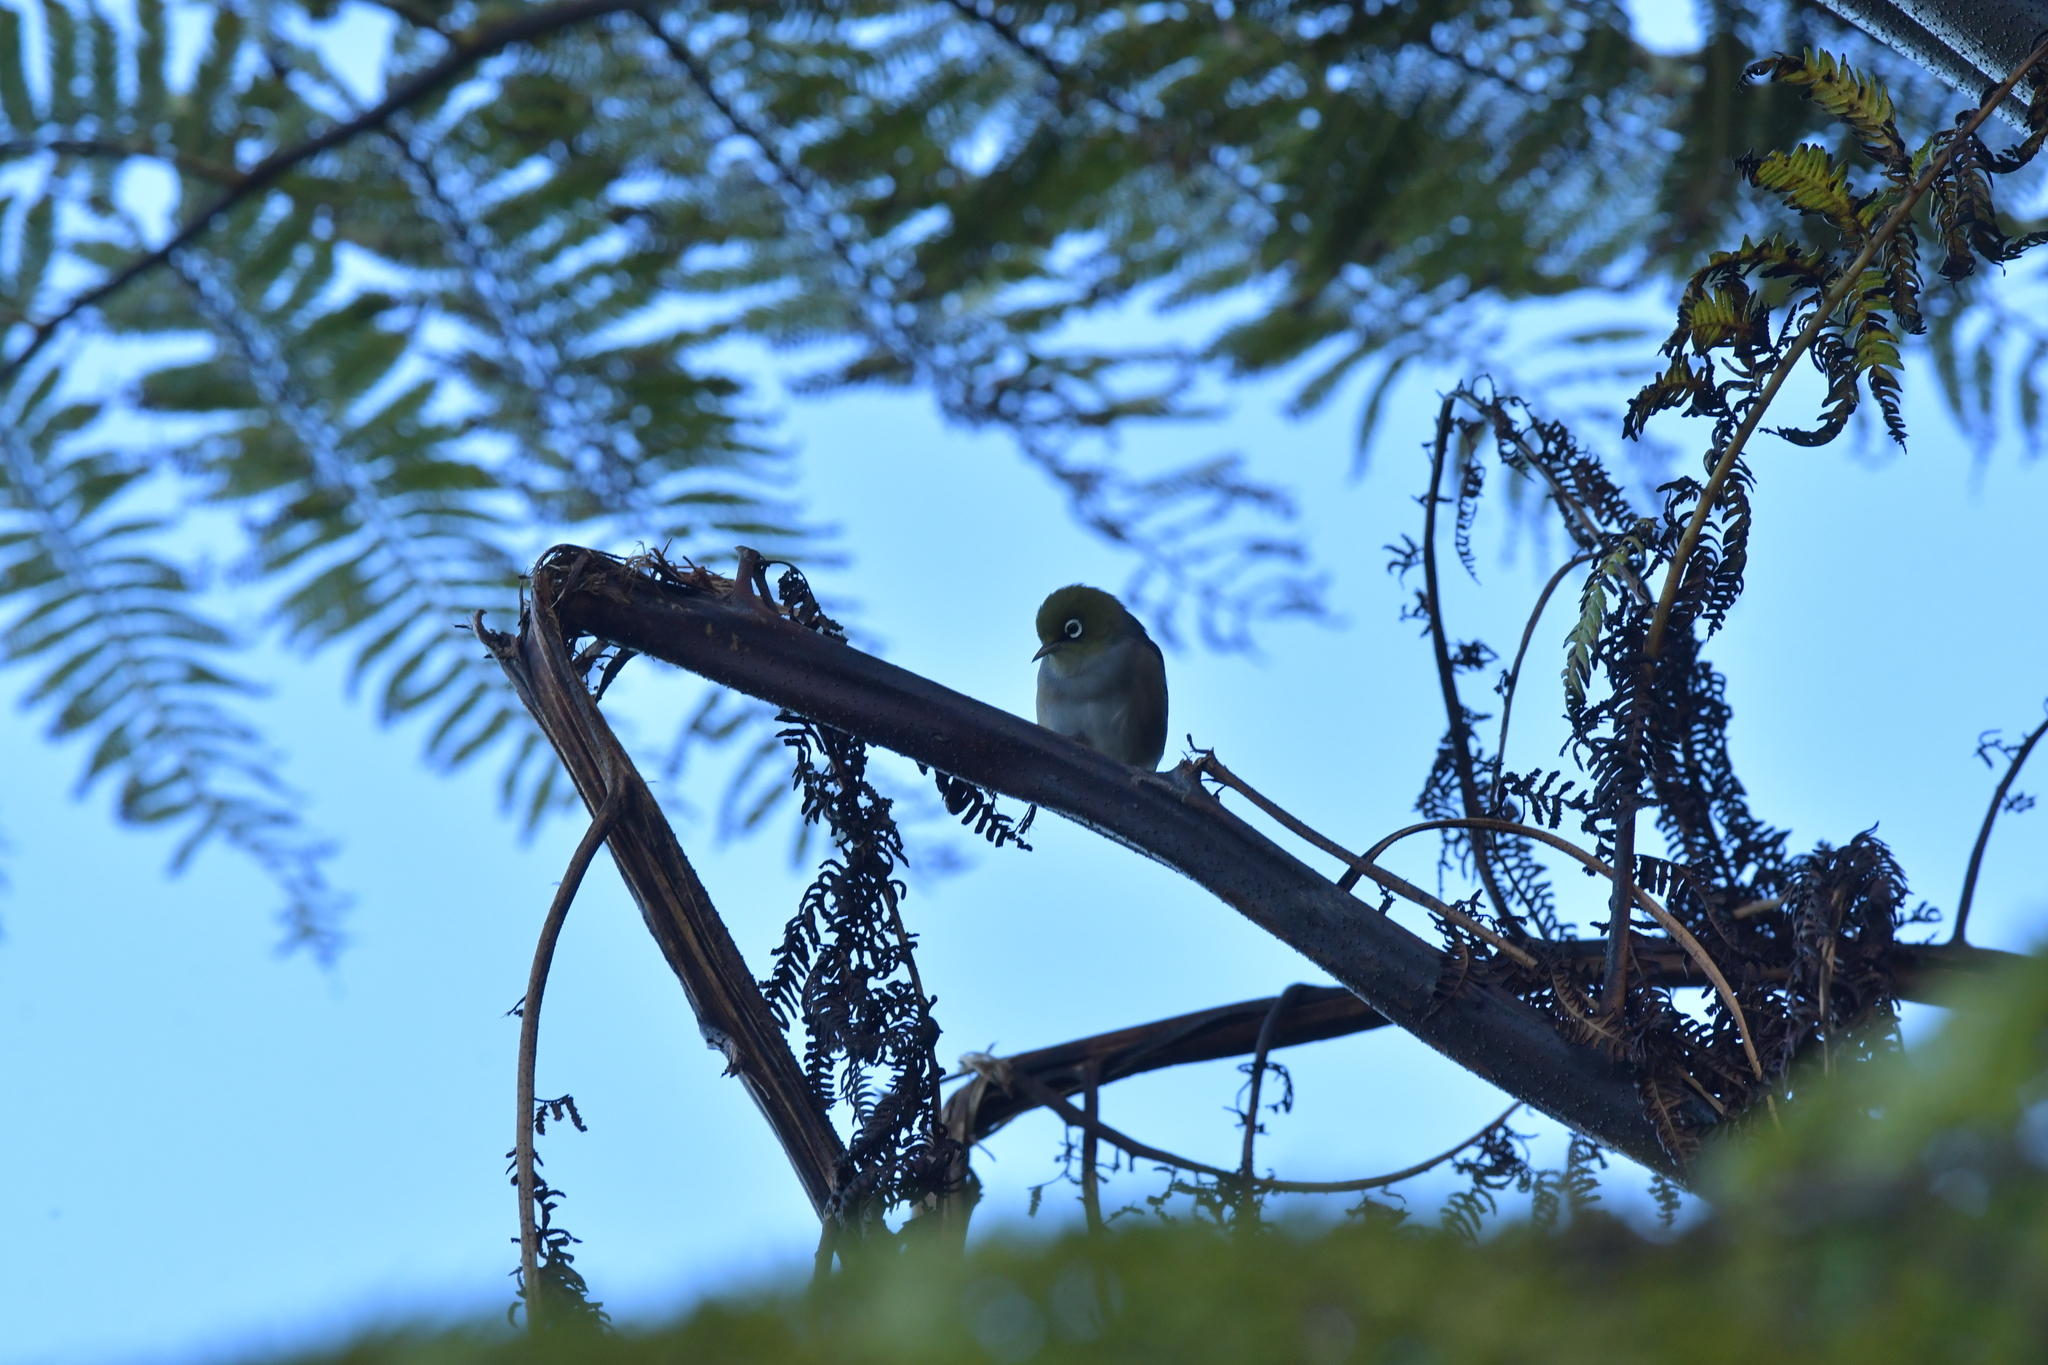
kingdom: Animalia
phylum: Chordata
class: Aves
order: Passeriformes
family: Zosteropidae
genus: Zosterops
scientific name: Zosterops lateralis
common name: Silvereye
